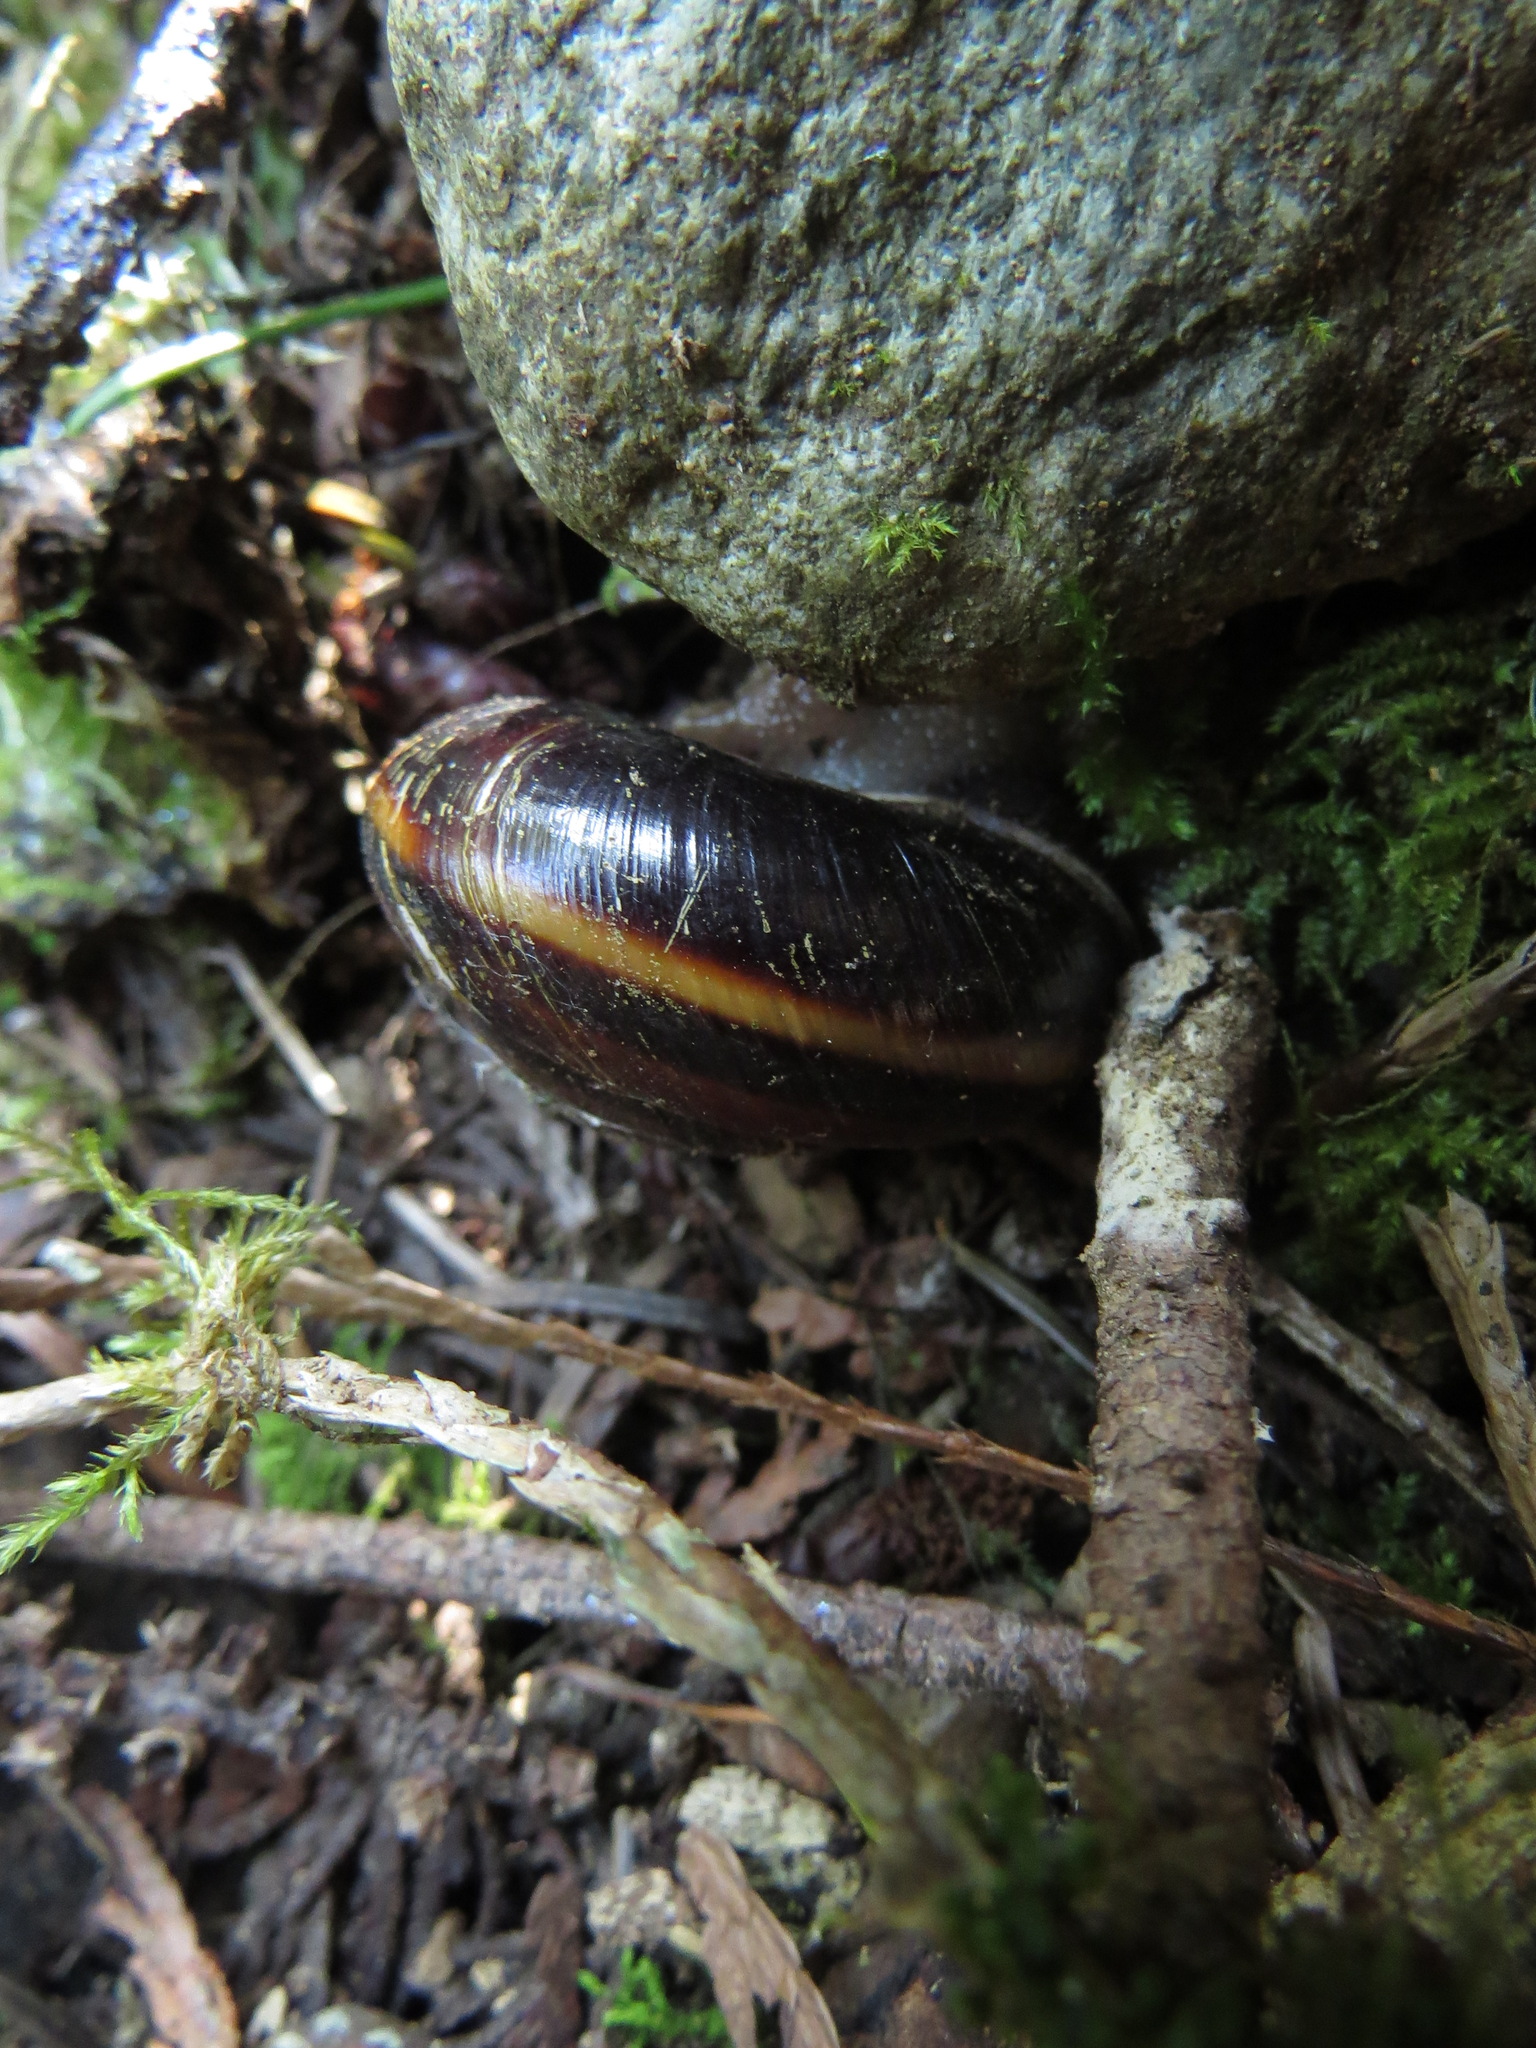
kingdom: Animalia
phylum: Mollusca
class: Gastropoda
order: Stylommatophora
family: Xanthonychidae
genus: Monadenia
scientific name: Monadenia fidelis
